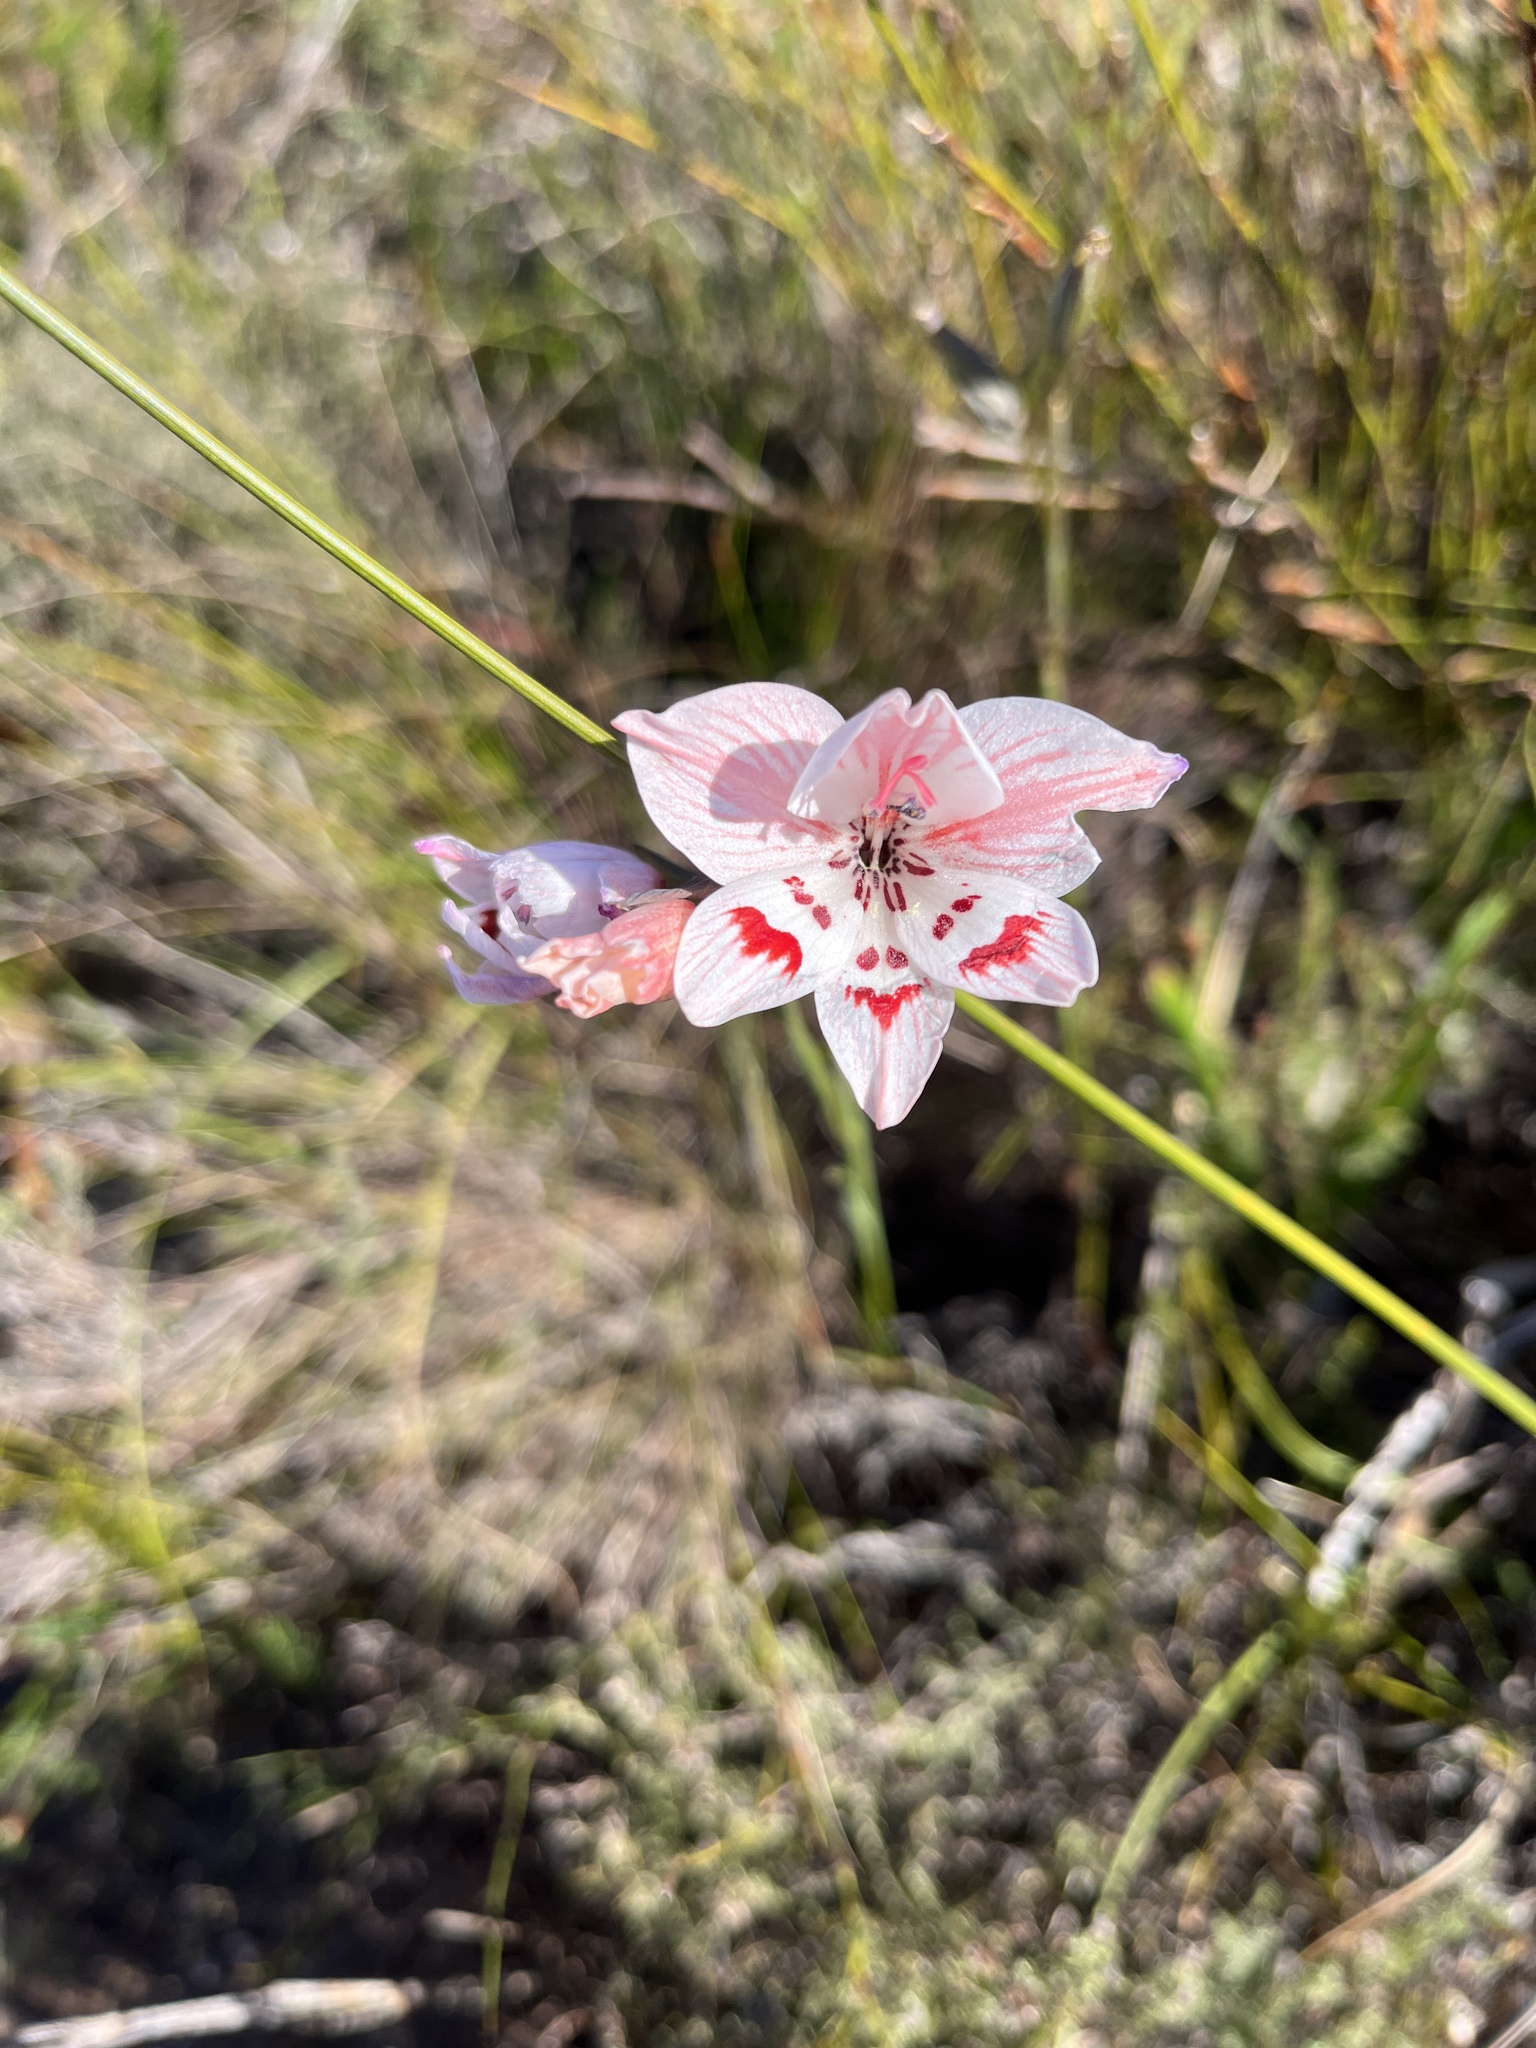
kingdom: Plantae
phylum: Tracheophyta
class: Liliopsida
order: Asparagales
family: Iridaceae
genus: Gladiolus
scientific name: Gladiolus debilis
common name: Painted-lady
